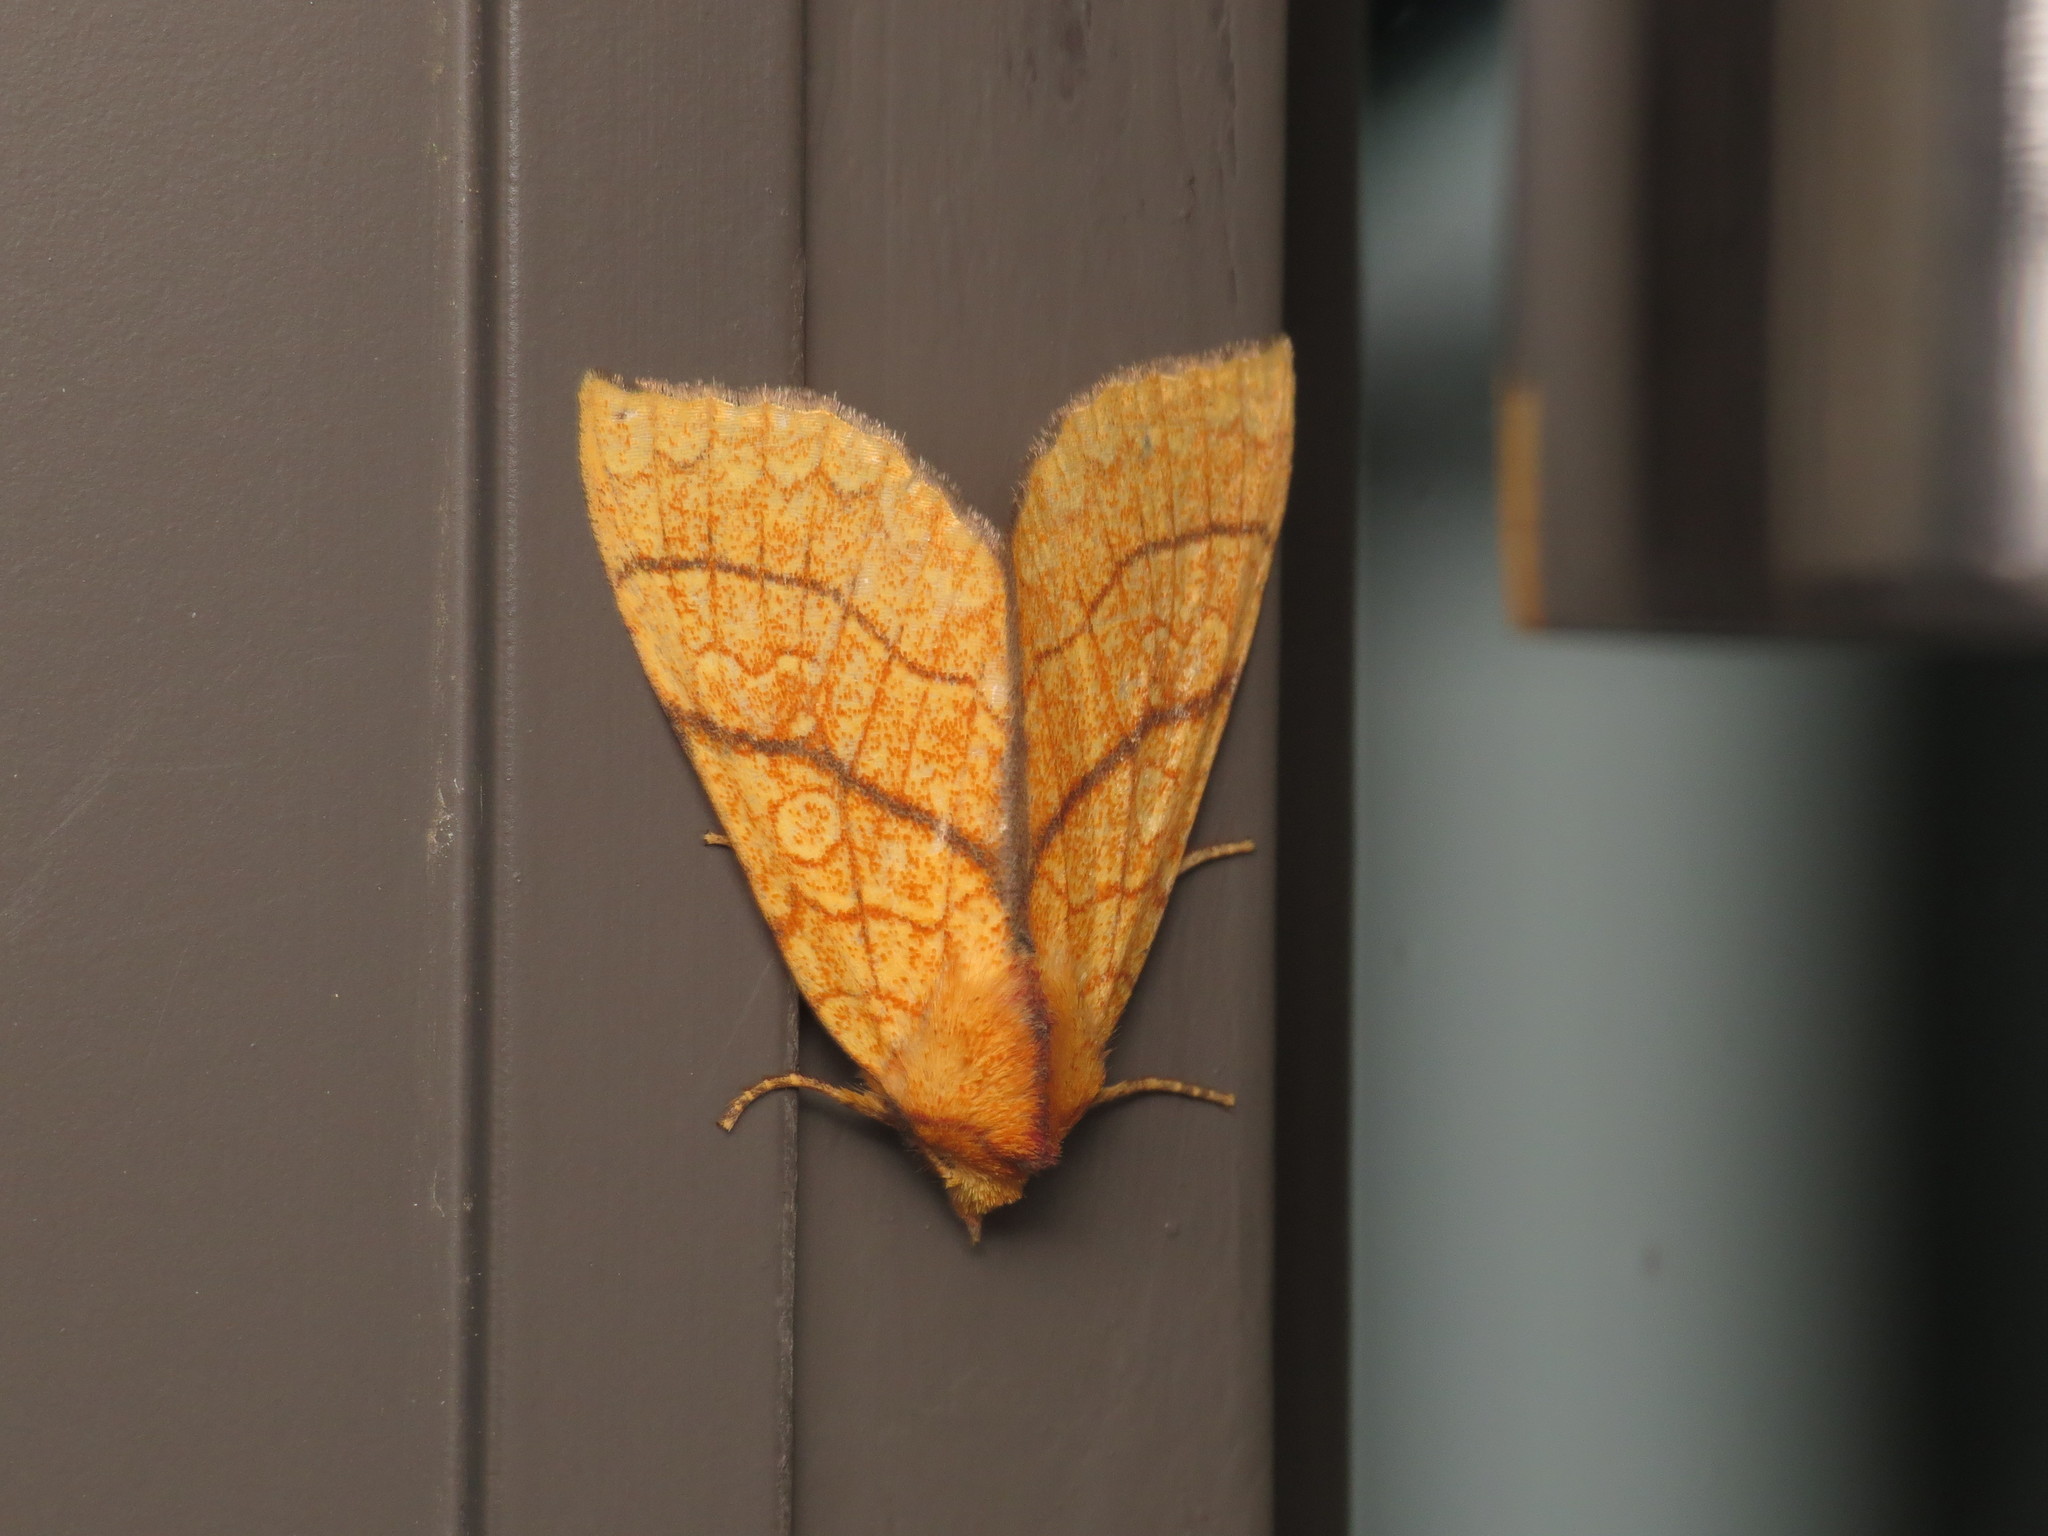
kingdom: Animalia
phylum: Arthropoda
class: Insecta
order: Lepidoptera
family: Noctuidae
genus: Tiliacea
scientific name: Tiliacea japonago
